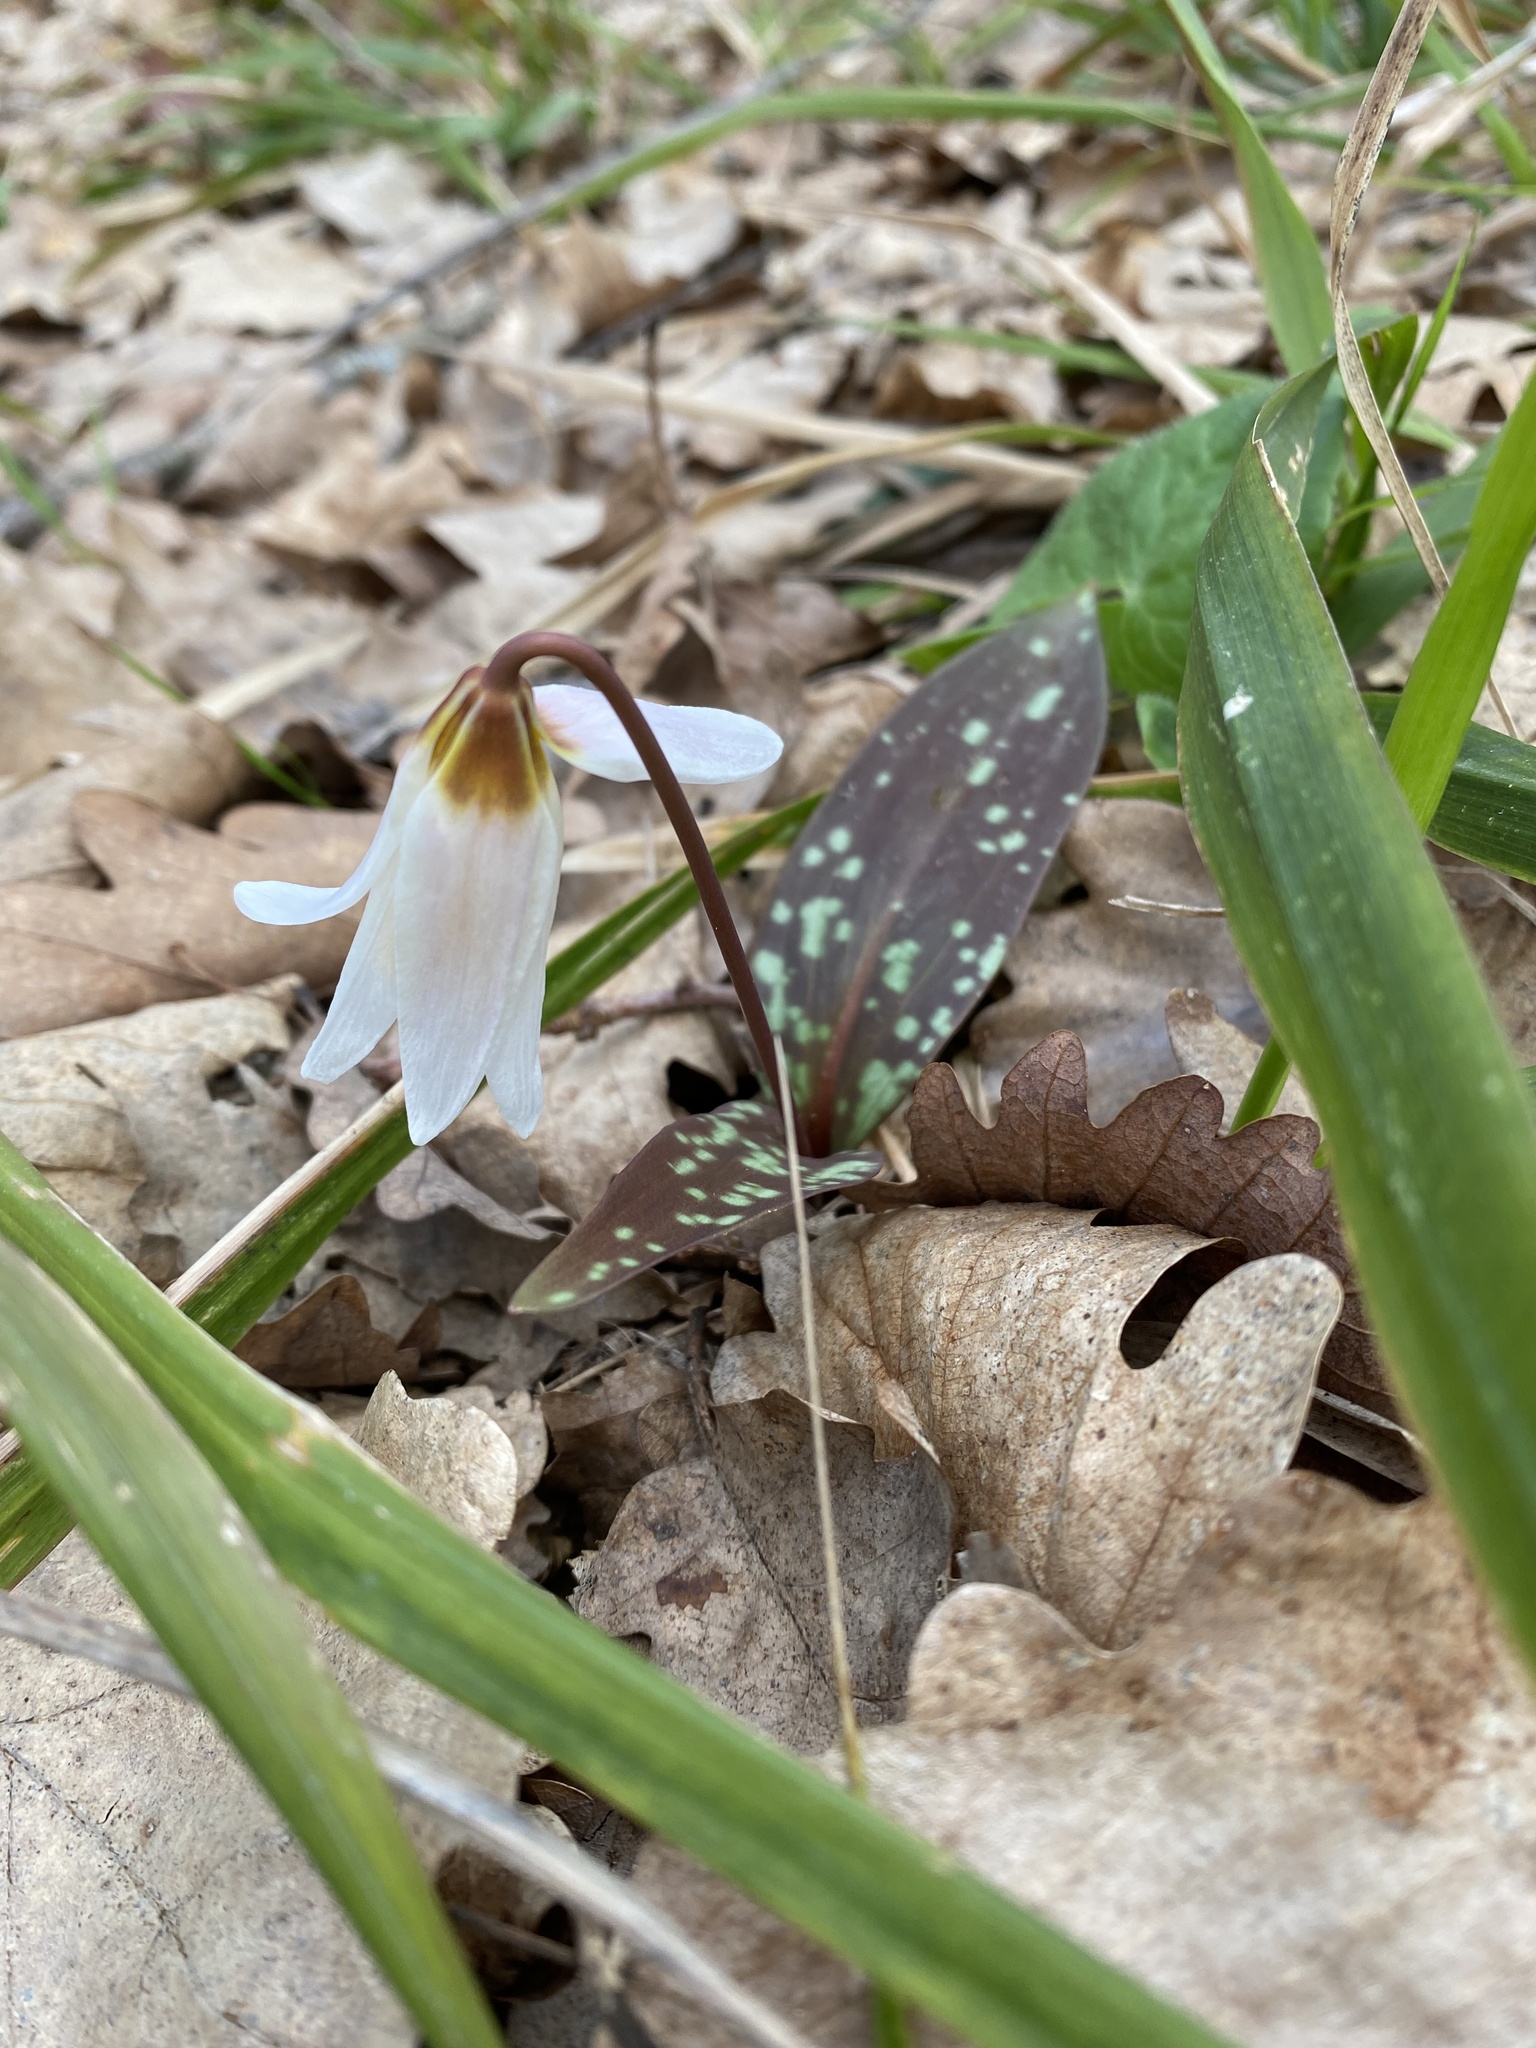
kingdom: Plantae
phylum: Tracheophyta
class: Liliopsida
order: Liliales
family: Liliaceae
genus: Erythronium
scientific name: Erythronium caucasicum
